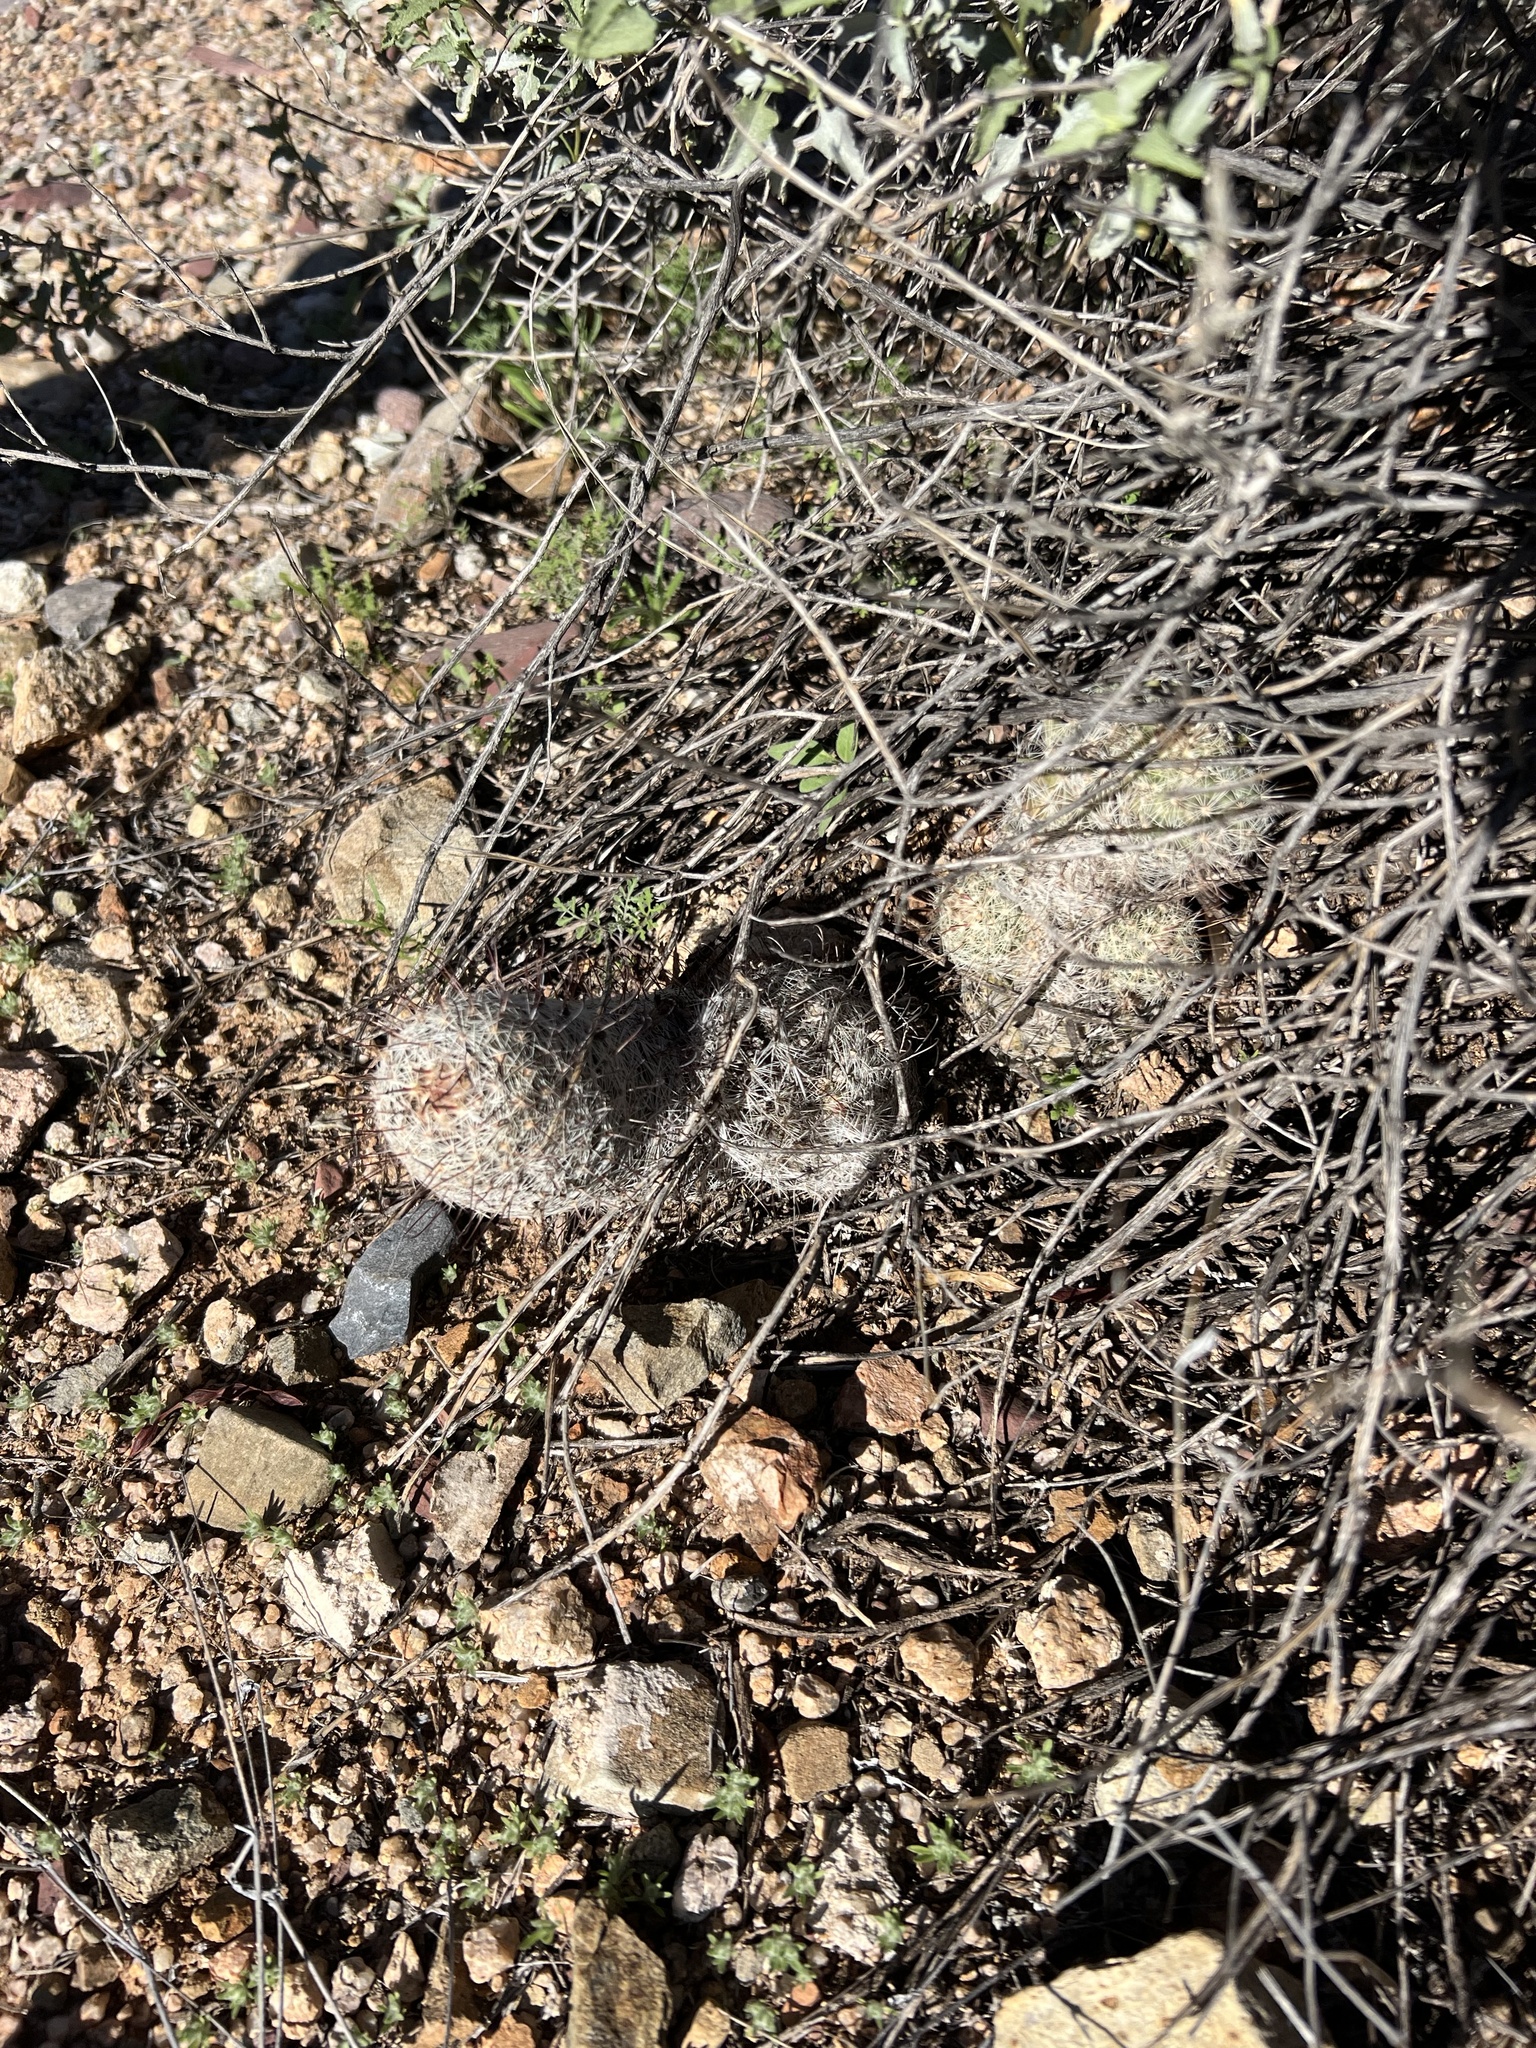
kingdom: Plantae
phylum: Tracheophyta
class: Magnoliopsida
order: Caryophyllales
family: Cactaceae
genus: Cochemiea
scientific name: Cochemiea grahamii
